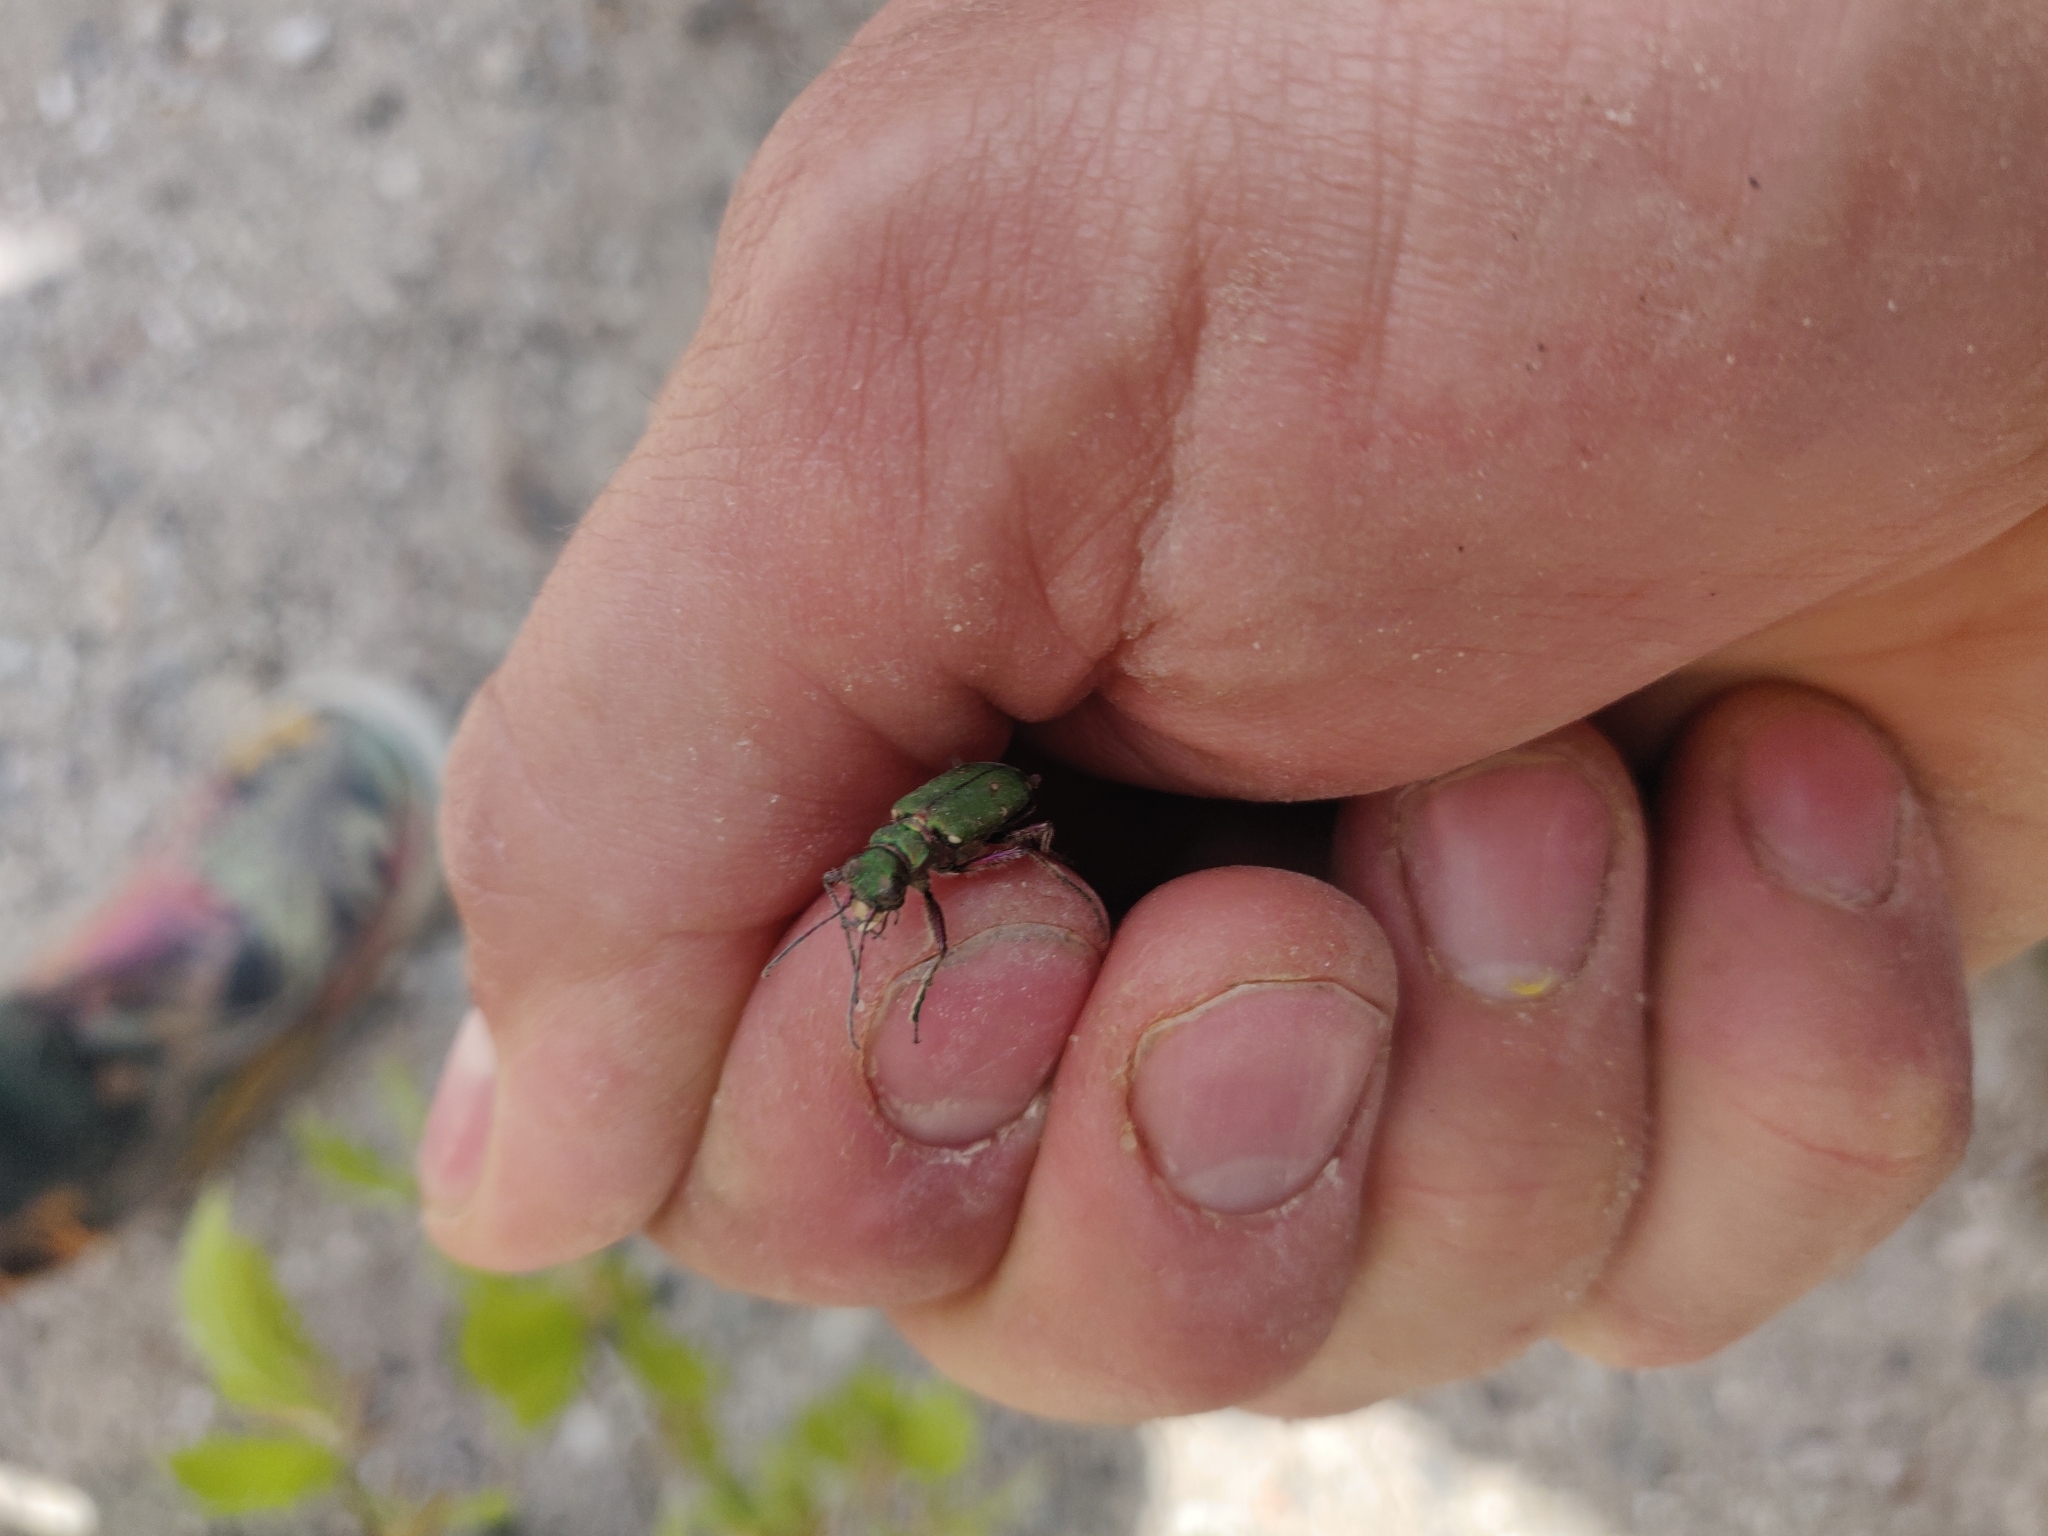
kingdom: Animalia
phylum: Arthropoda
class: Insecta
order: Coleoptera
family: Carabidae
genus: Cicindela
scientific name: Cicindela campestris
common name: Common tiger beetle
